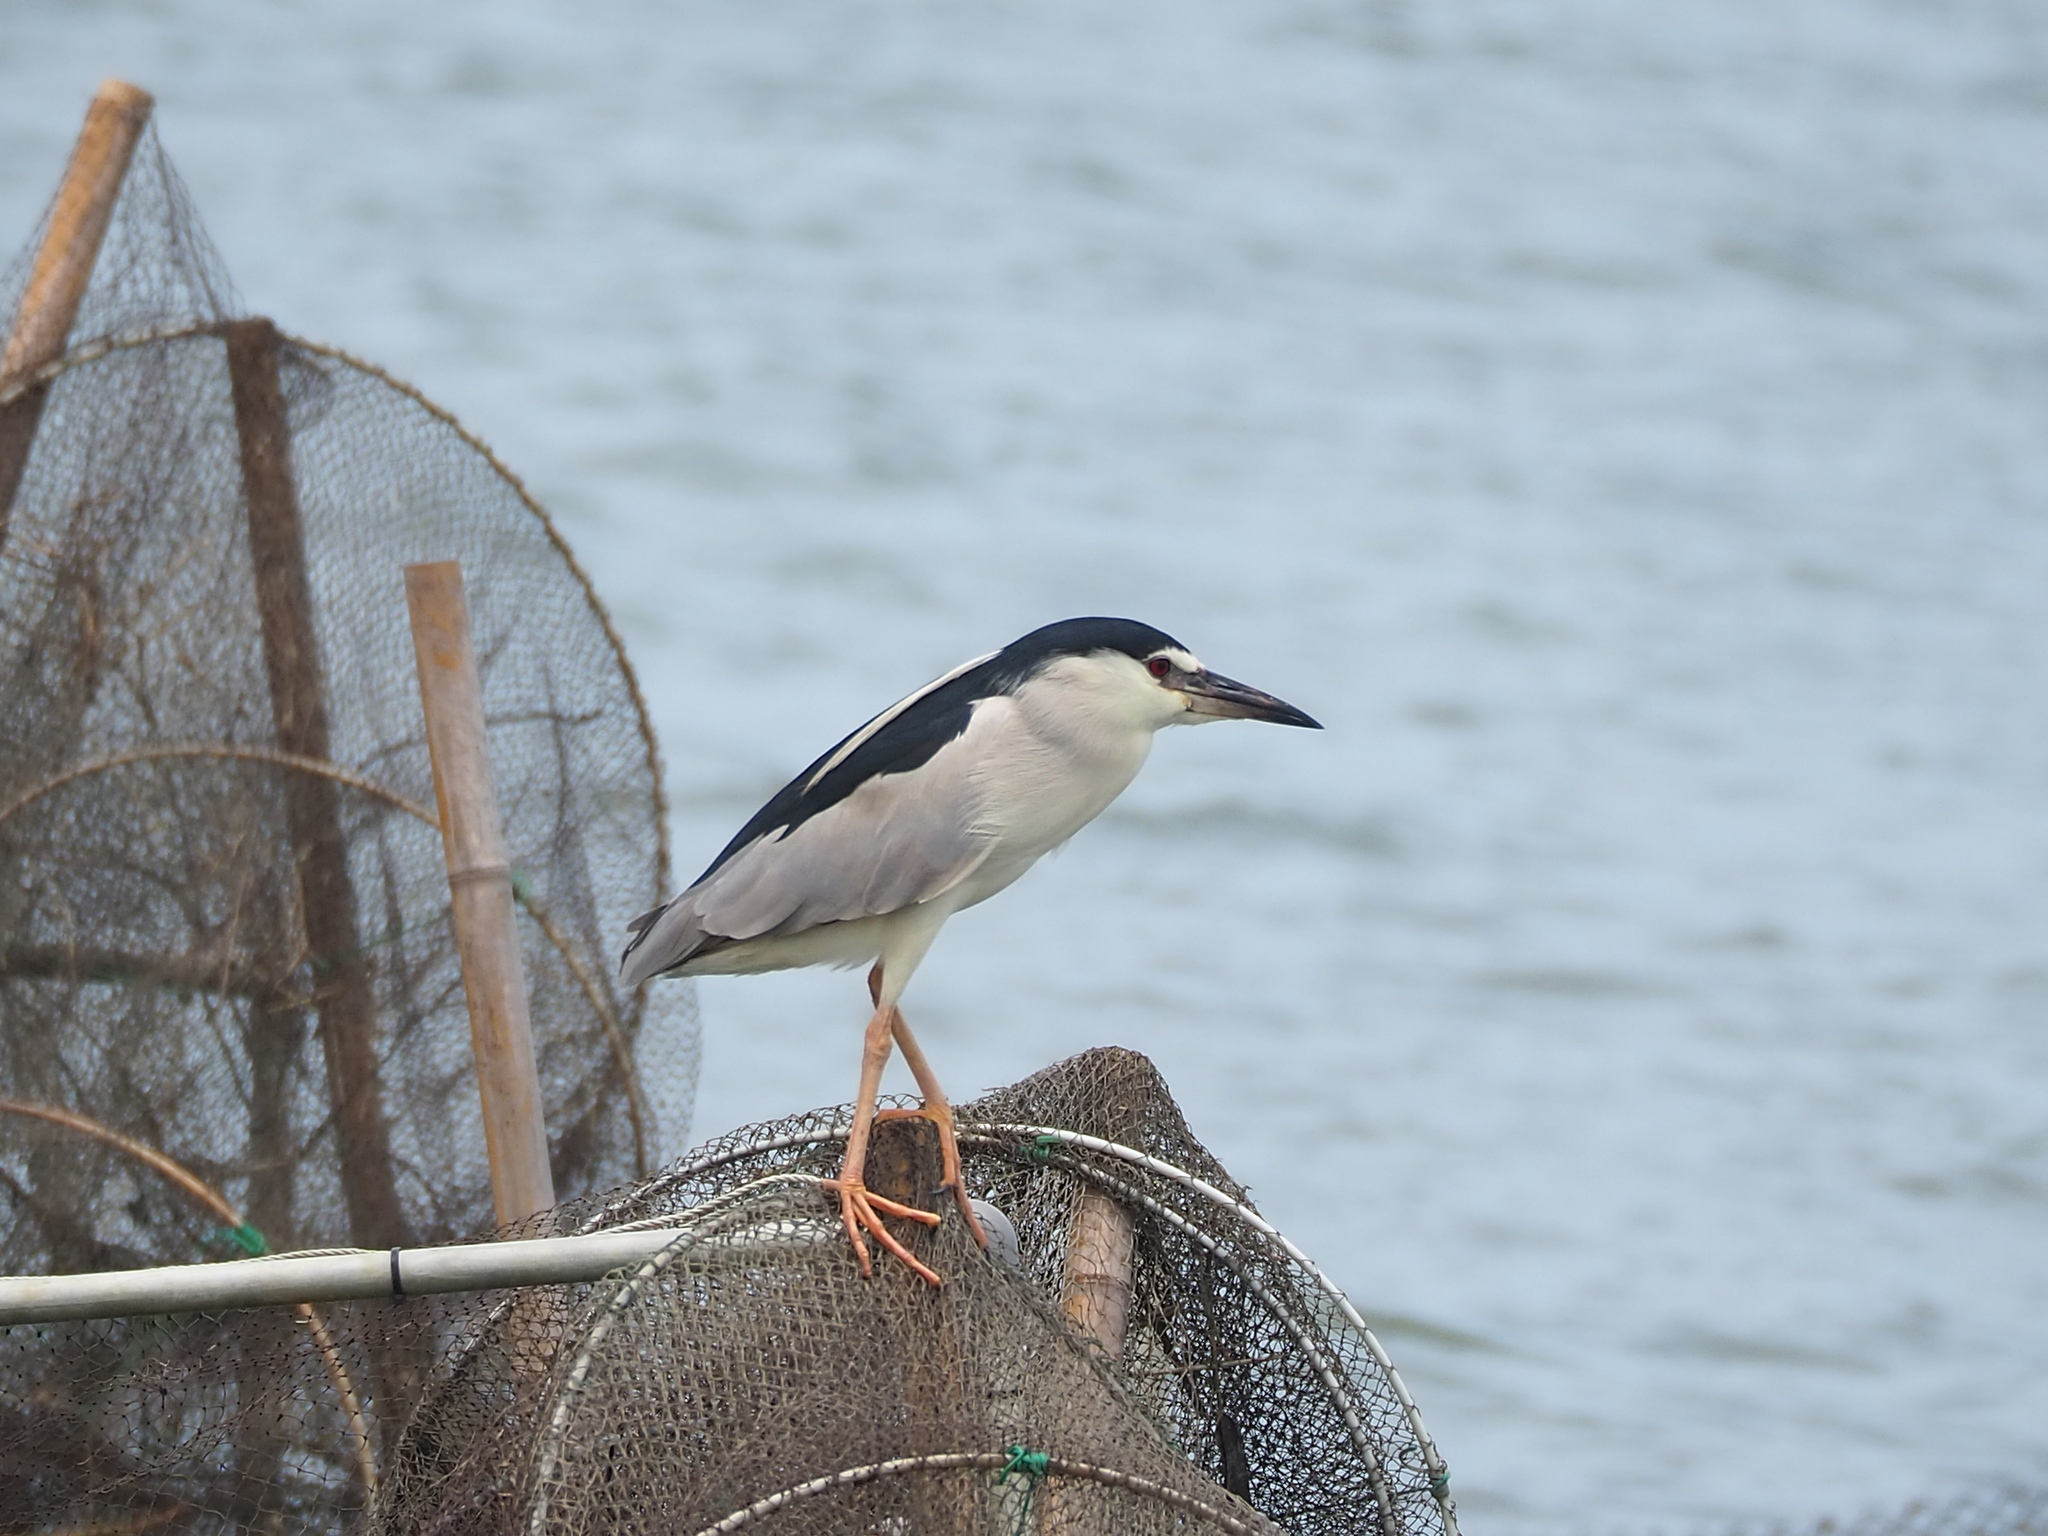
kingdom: Animalia
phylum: Chordata
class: Aves
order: Pelecaniformes
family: Ardeidae
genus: Nycticorax
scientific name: Nycticorax nycticorax
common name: Black-crowned night heron
